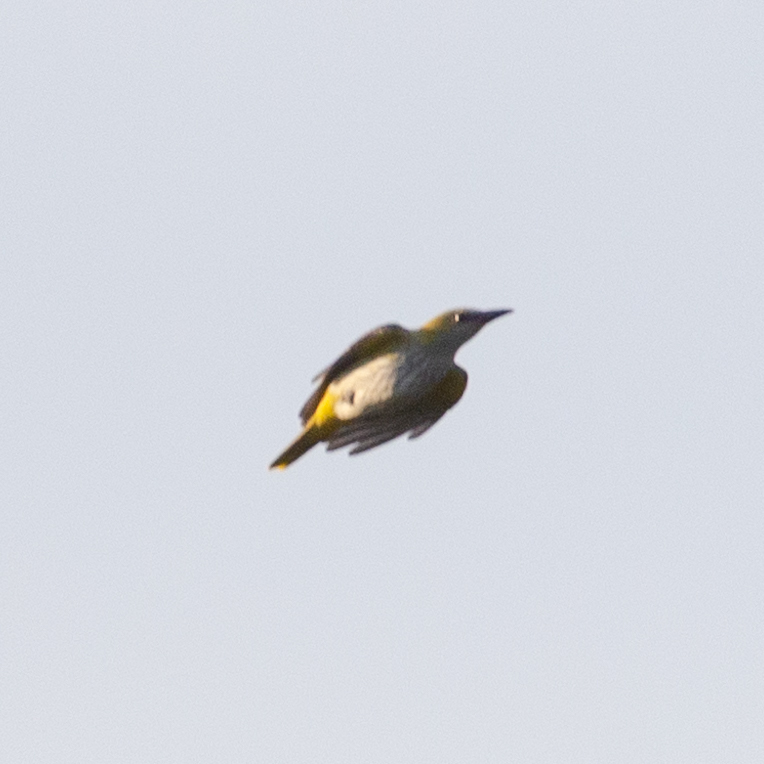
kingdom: Animalia
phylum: Chordata
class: Aves
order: Passeriformes
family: Oriolidae
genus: Oriolus
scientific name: Oriolus oriolus
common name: Eurasian golden oriole
